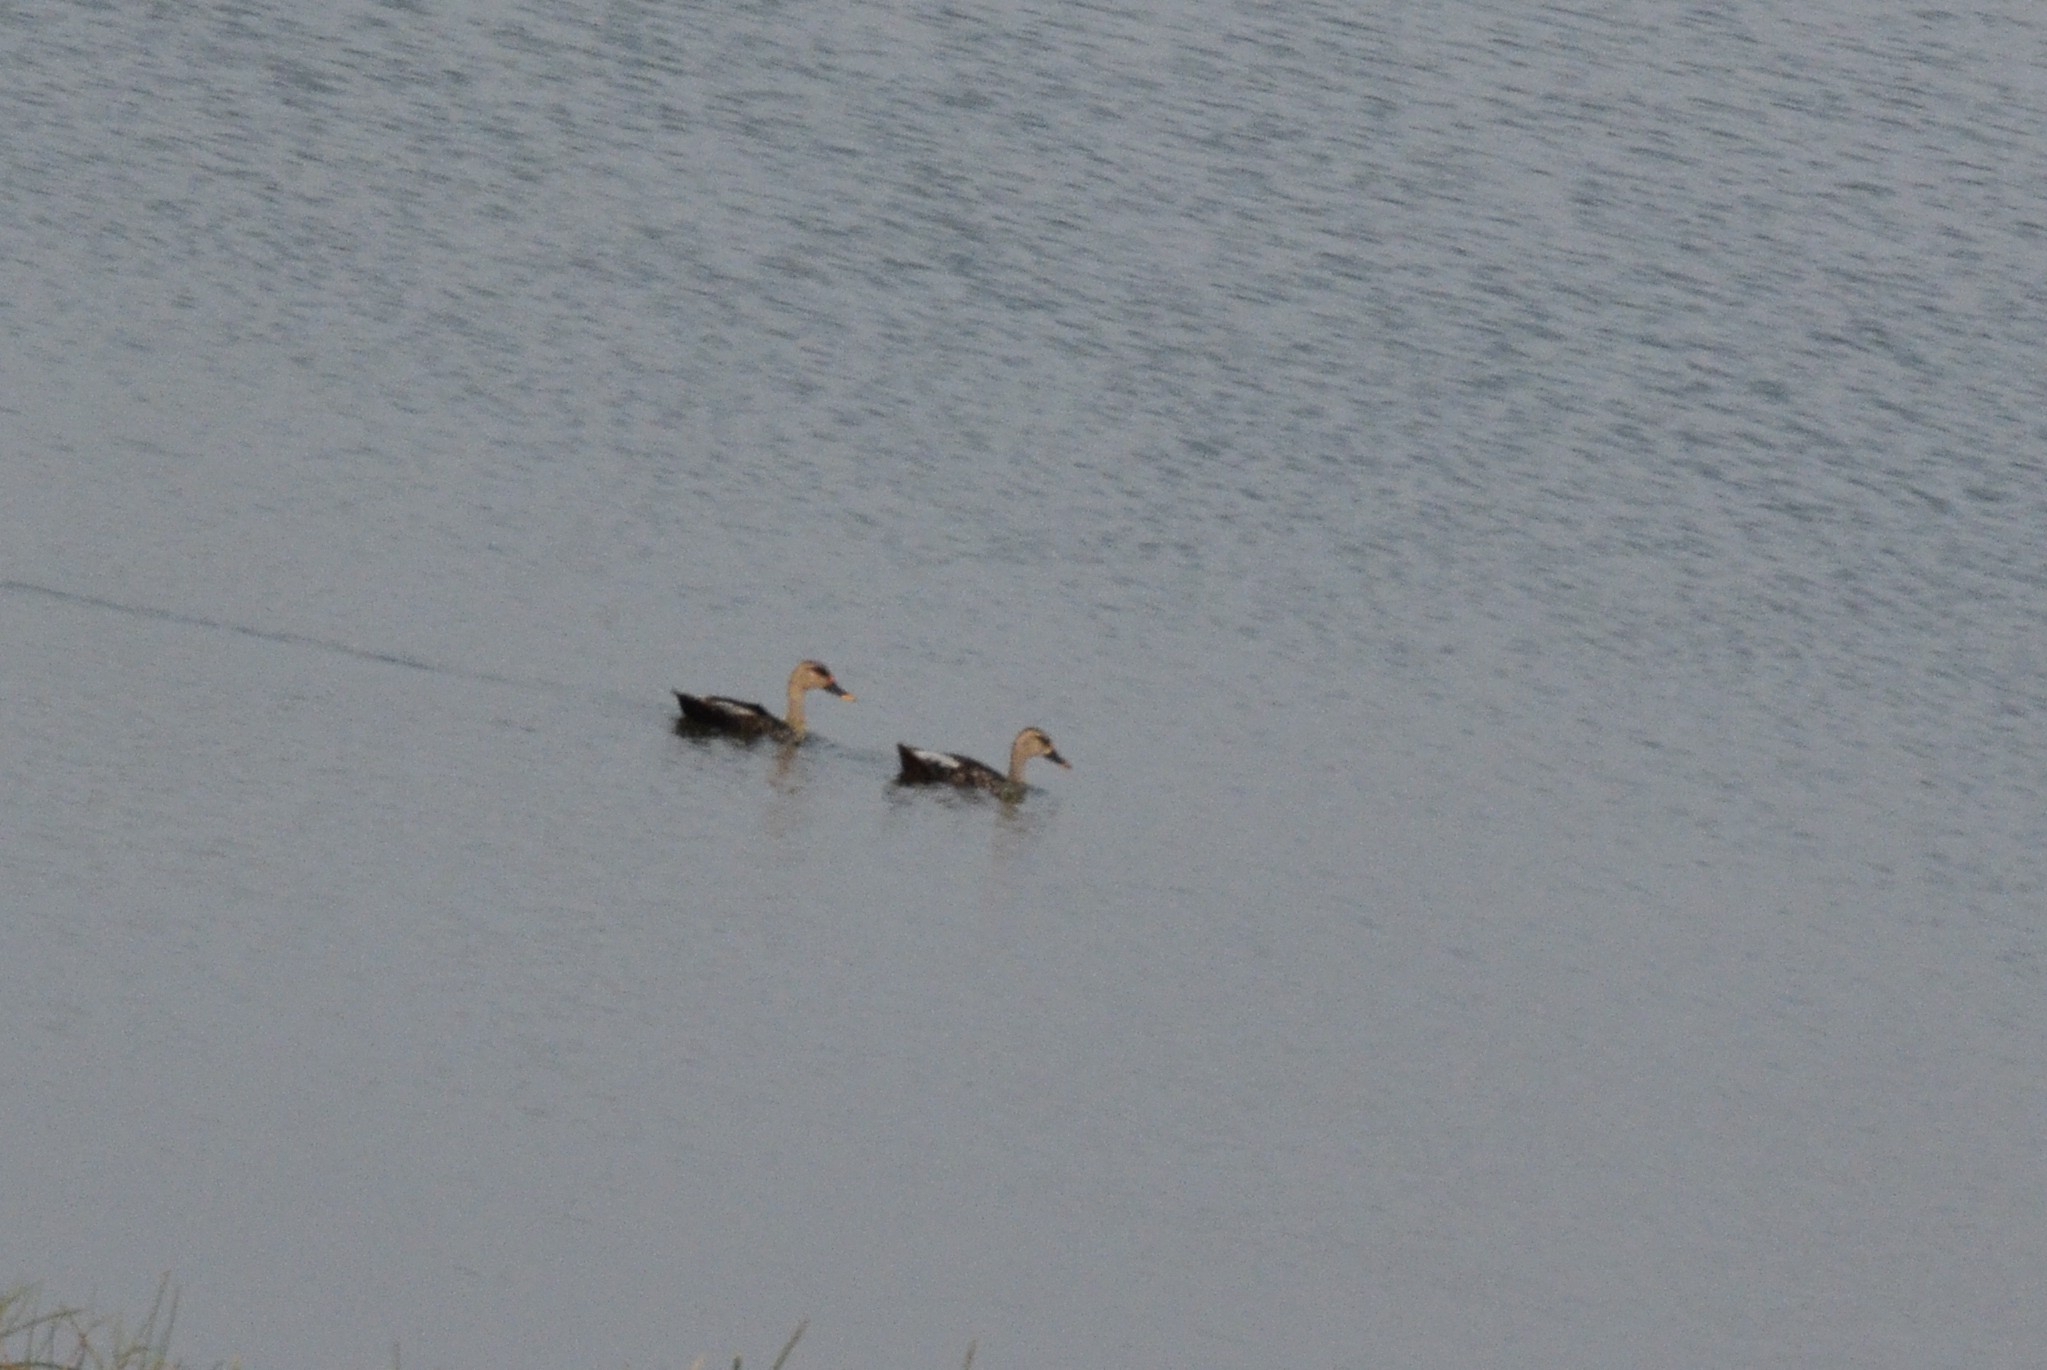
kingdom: Animalia
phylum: Chordata
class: Aves
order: Anseriformes
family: Anatidae
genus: Anas
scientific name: Anas poecilorhyncha
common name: Indian spot-billed duck
